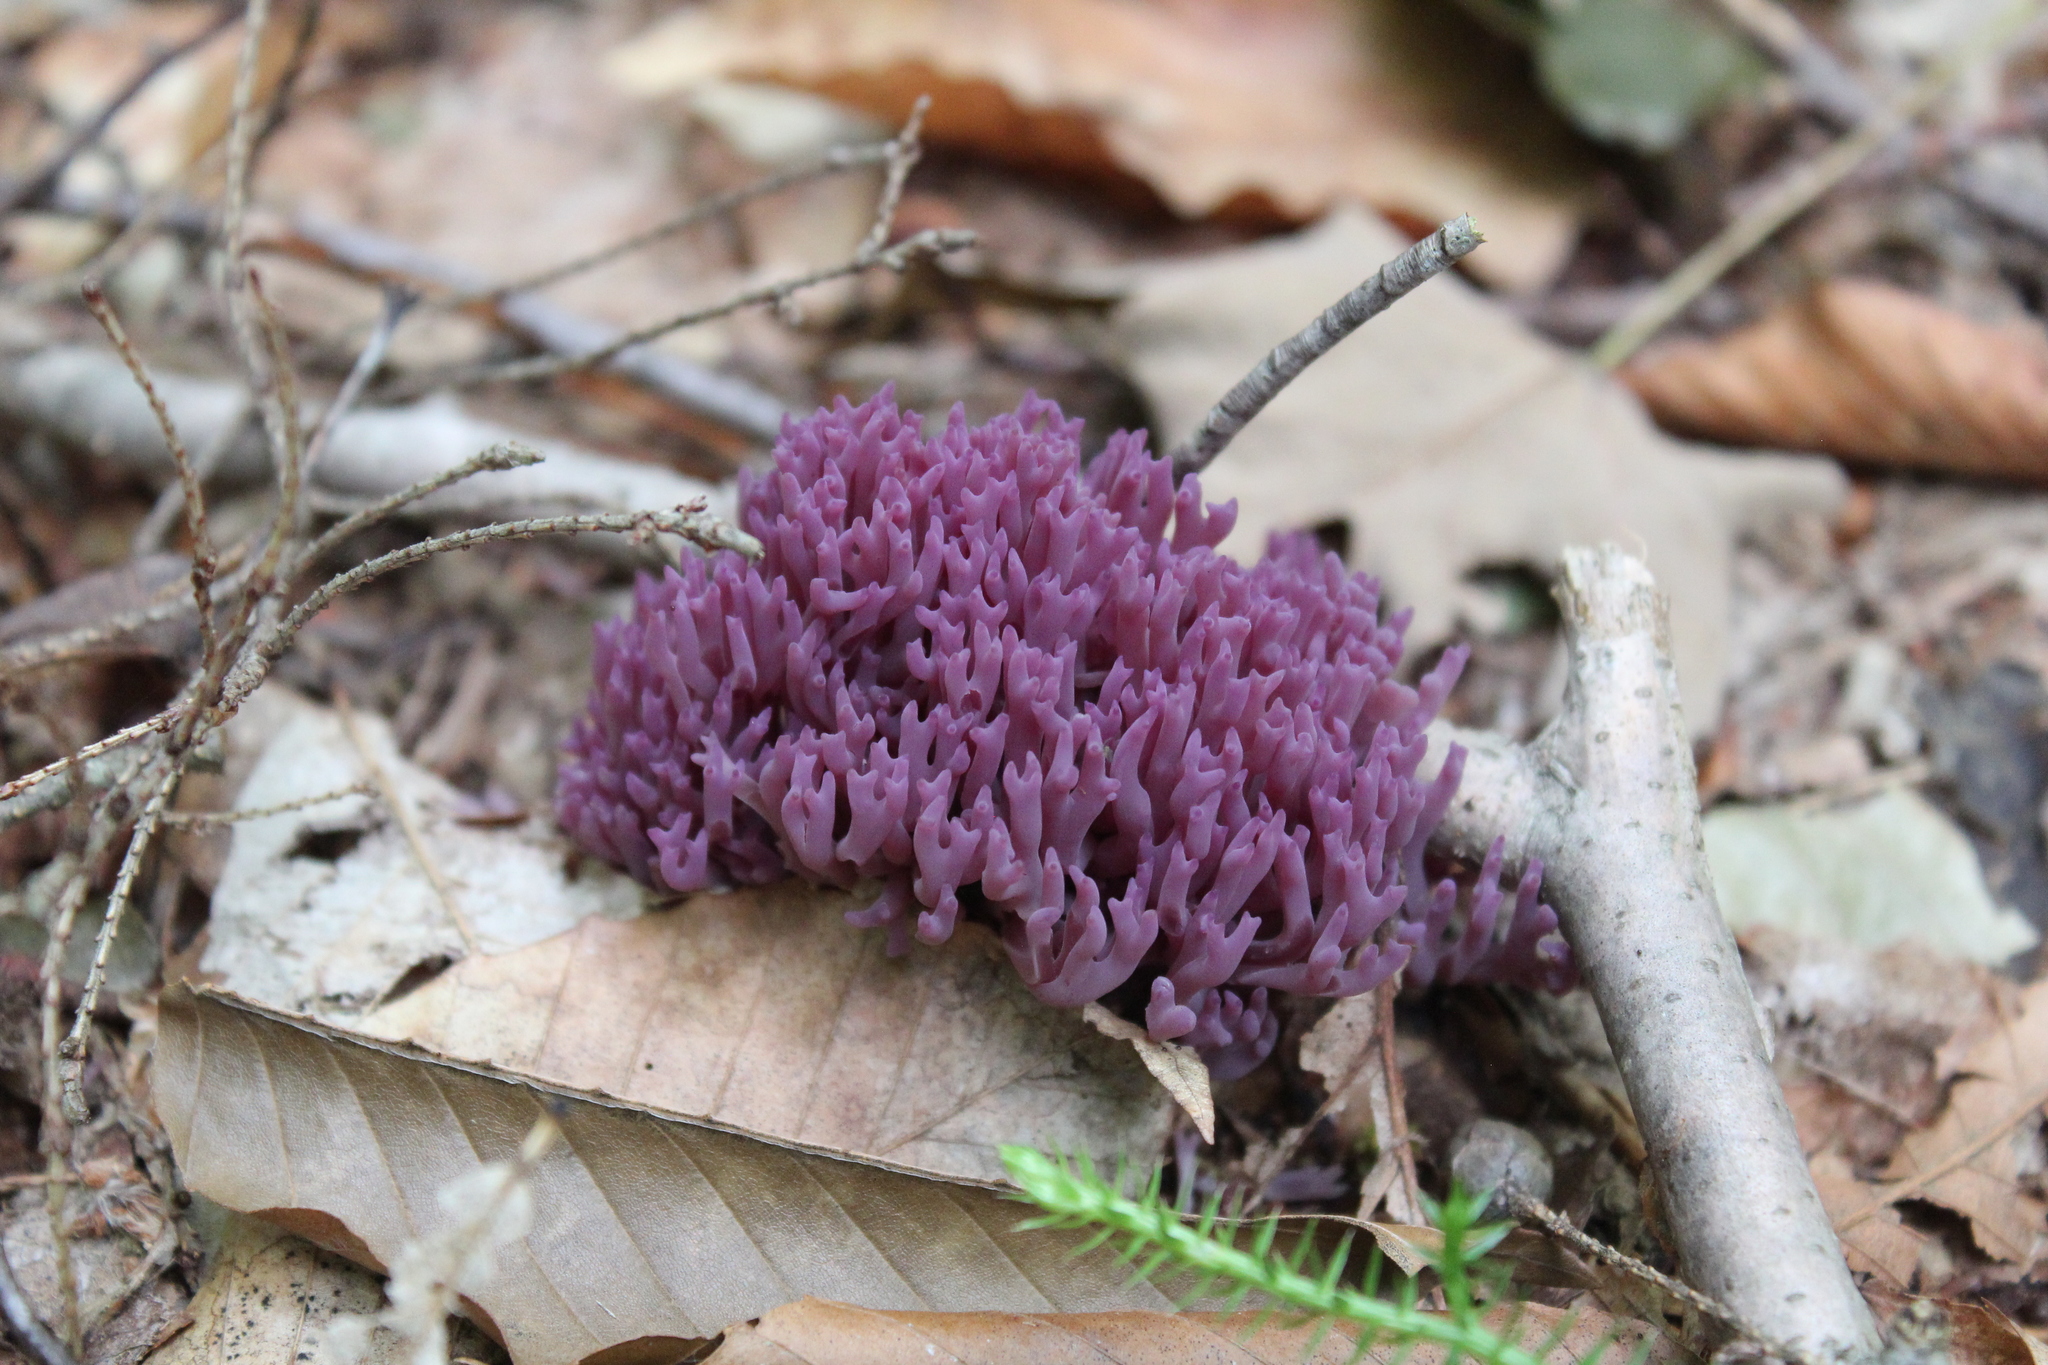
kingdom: Fungi
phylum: Basidiomycota
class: Agaricomycetes
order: Agaricales
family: Clavariaceae
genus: Clavaria
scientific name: Clavaria zollingeri
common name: Violet coral
